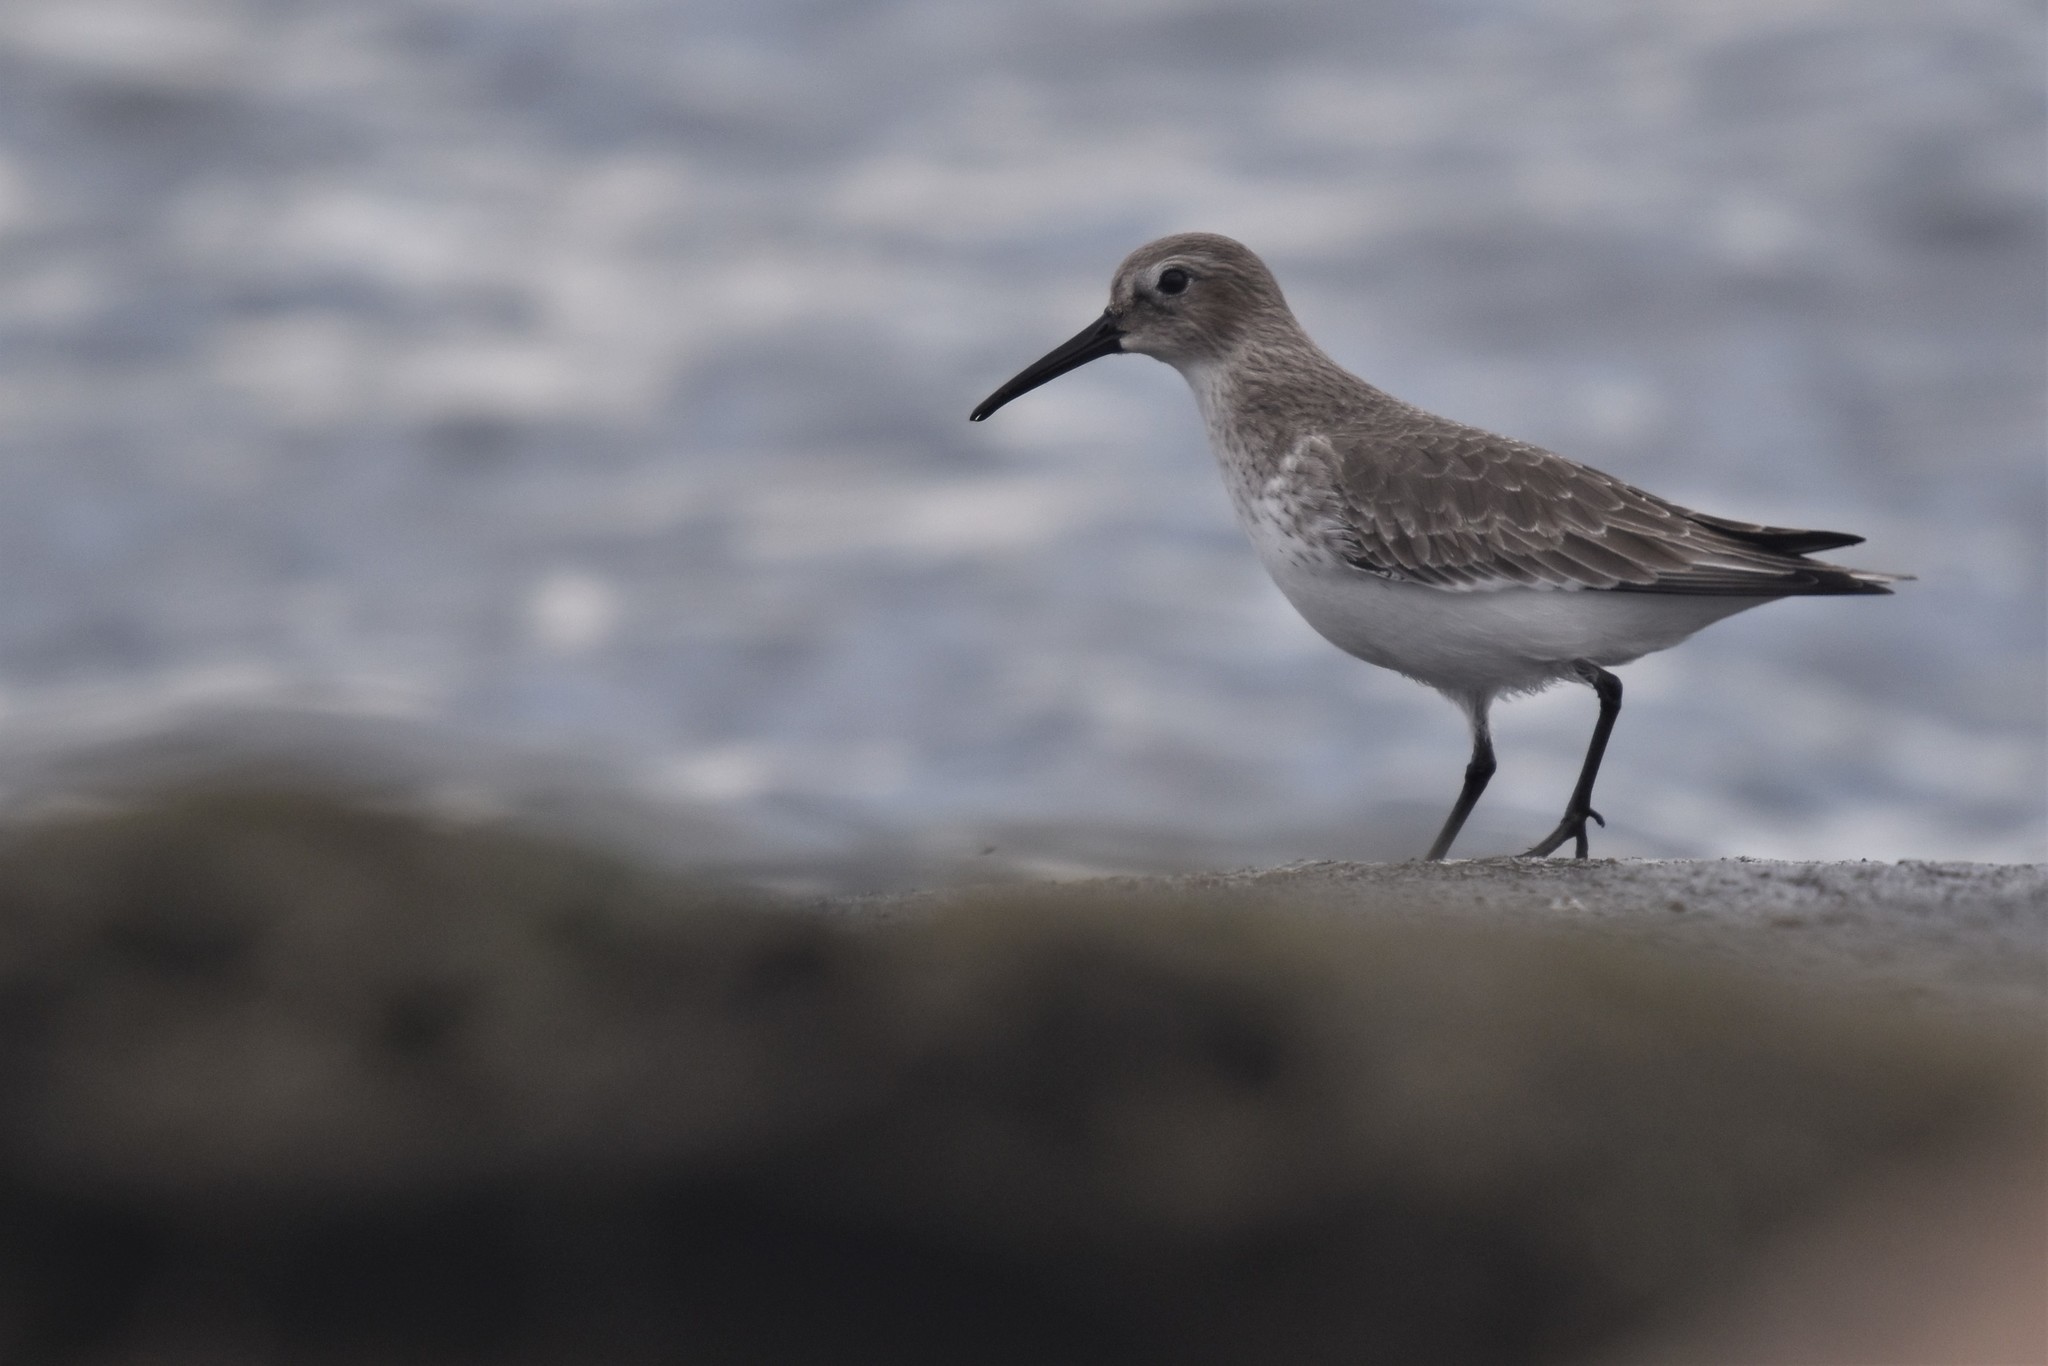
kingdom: Animalia
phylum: Chordata
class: Aves
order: Charadriiformes
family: Scolopacidae
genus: Calidris
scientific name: Calidris alpina
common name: Dunlin
